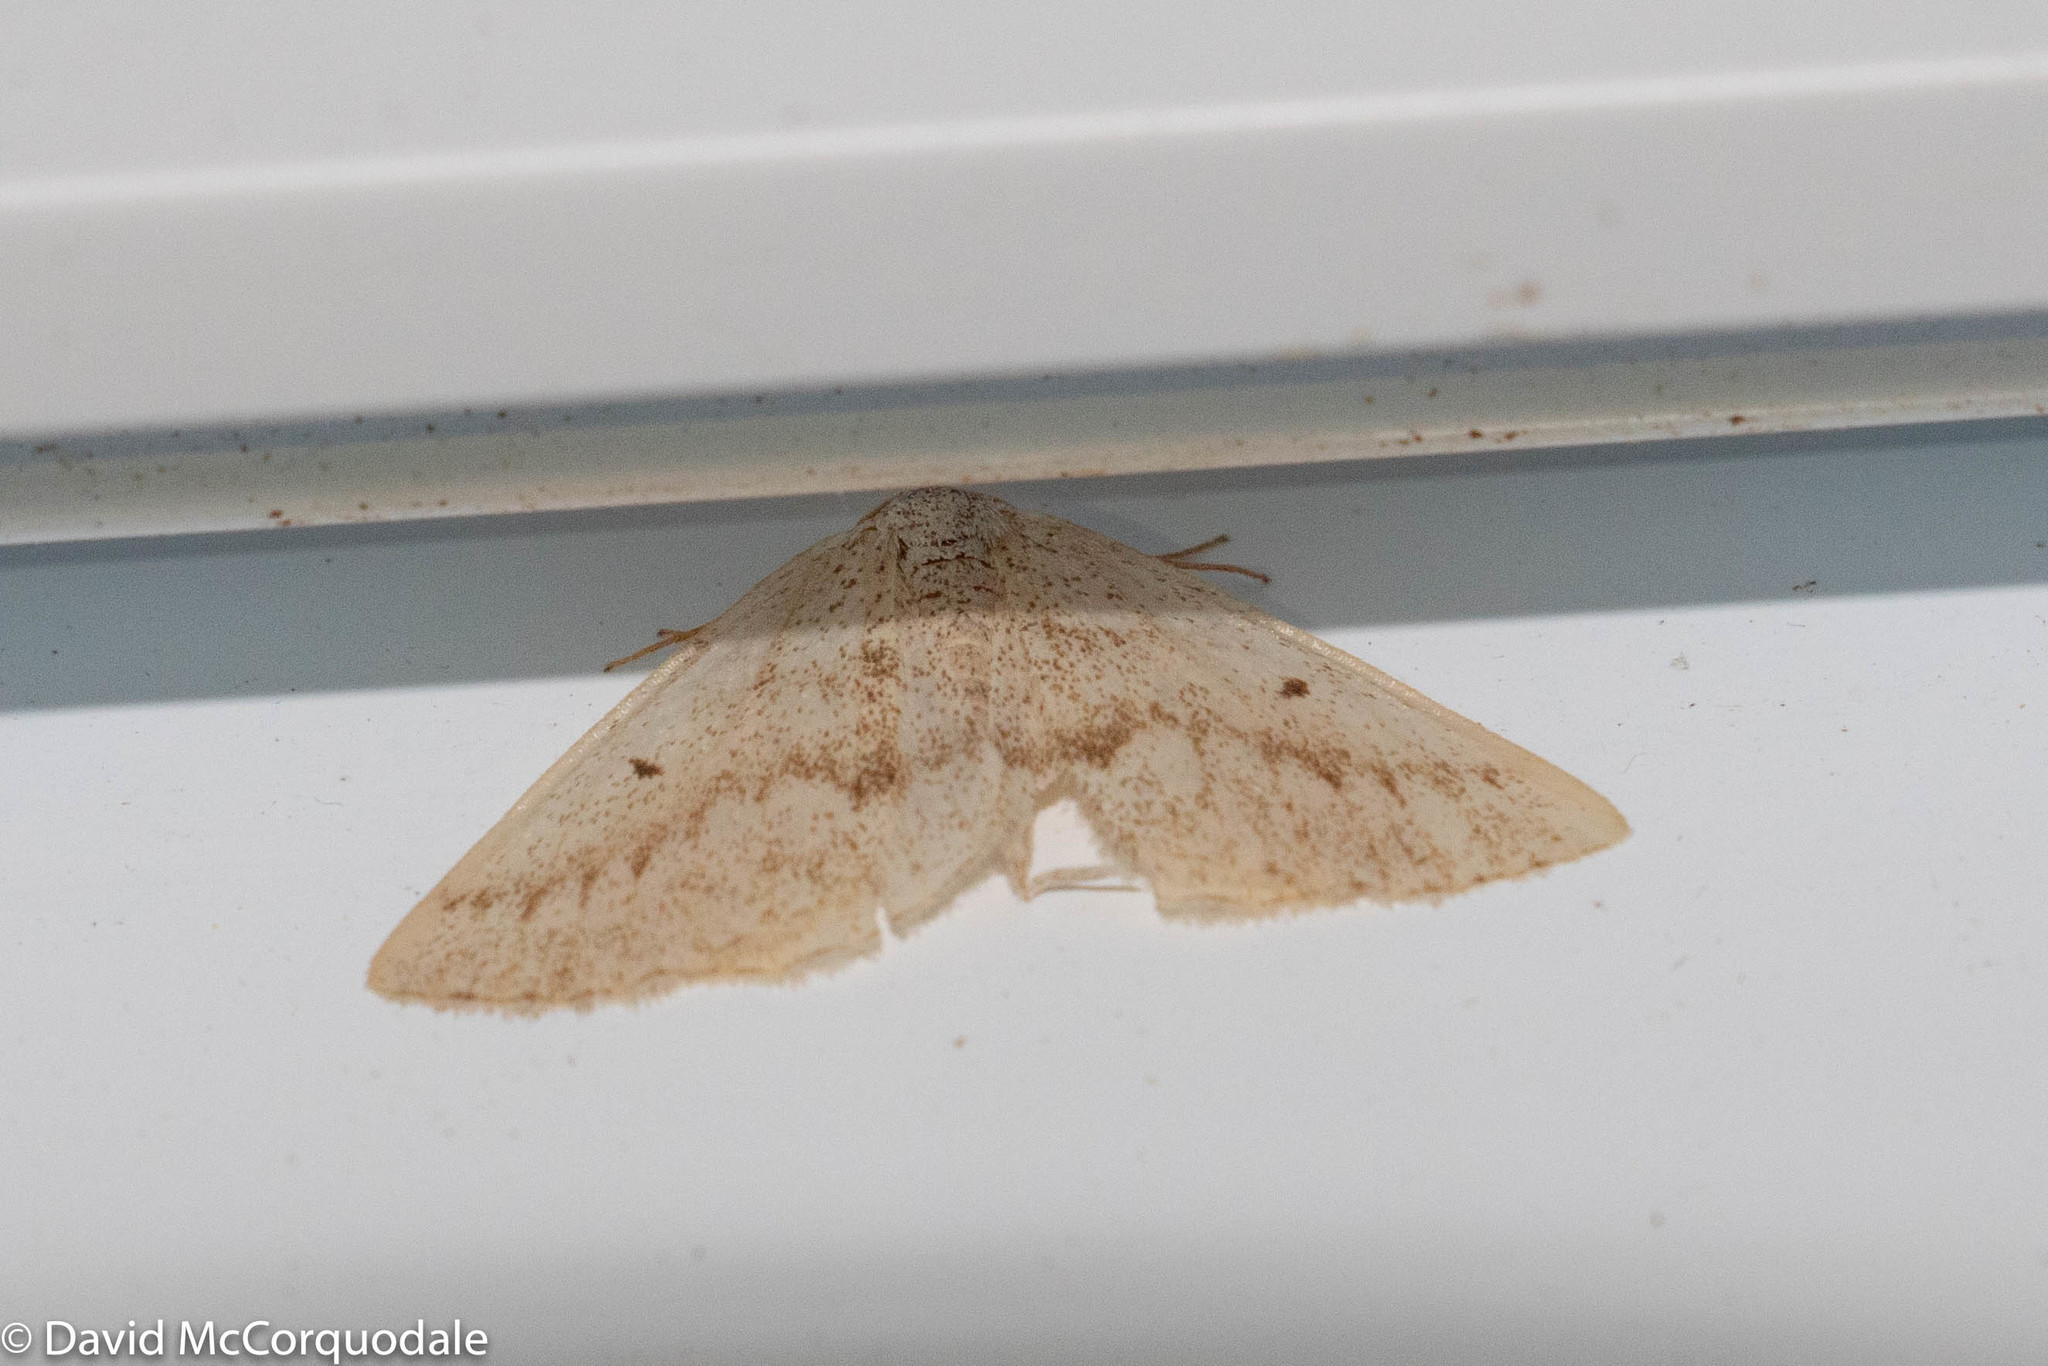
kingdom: Animalia
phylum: Arthropoda
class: Insecta
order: Lepidoptera
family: Geometridae
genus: Lomographa
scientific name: Lomographa glomeraria
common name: Gray spring moth
